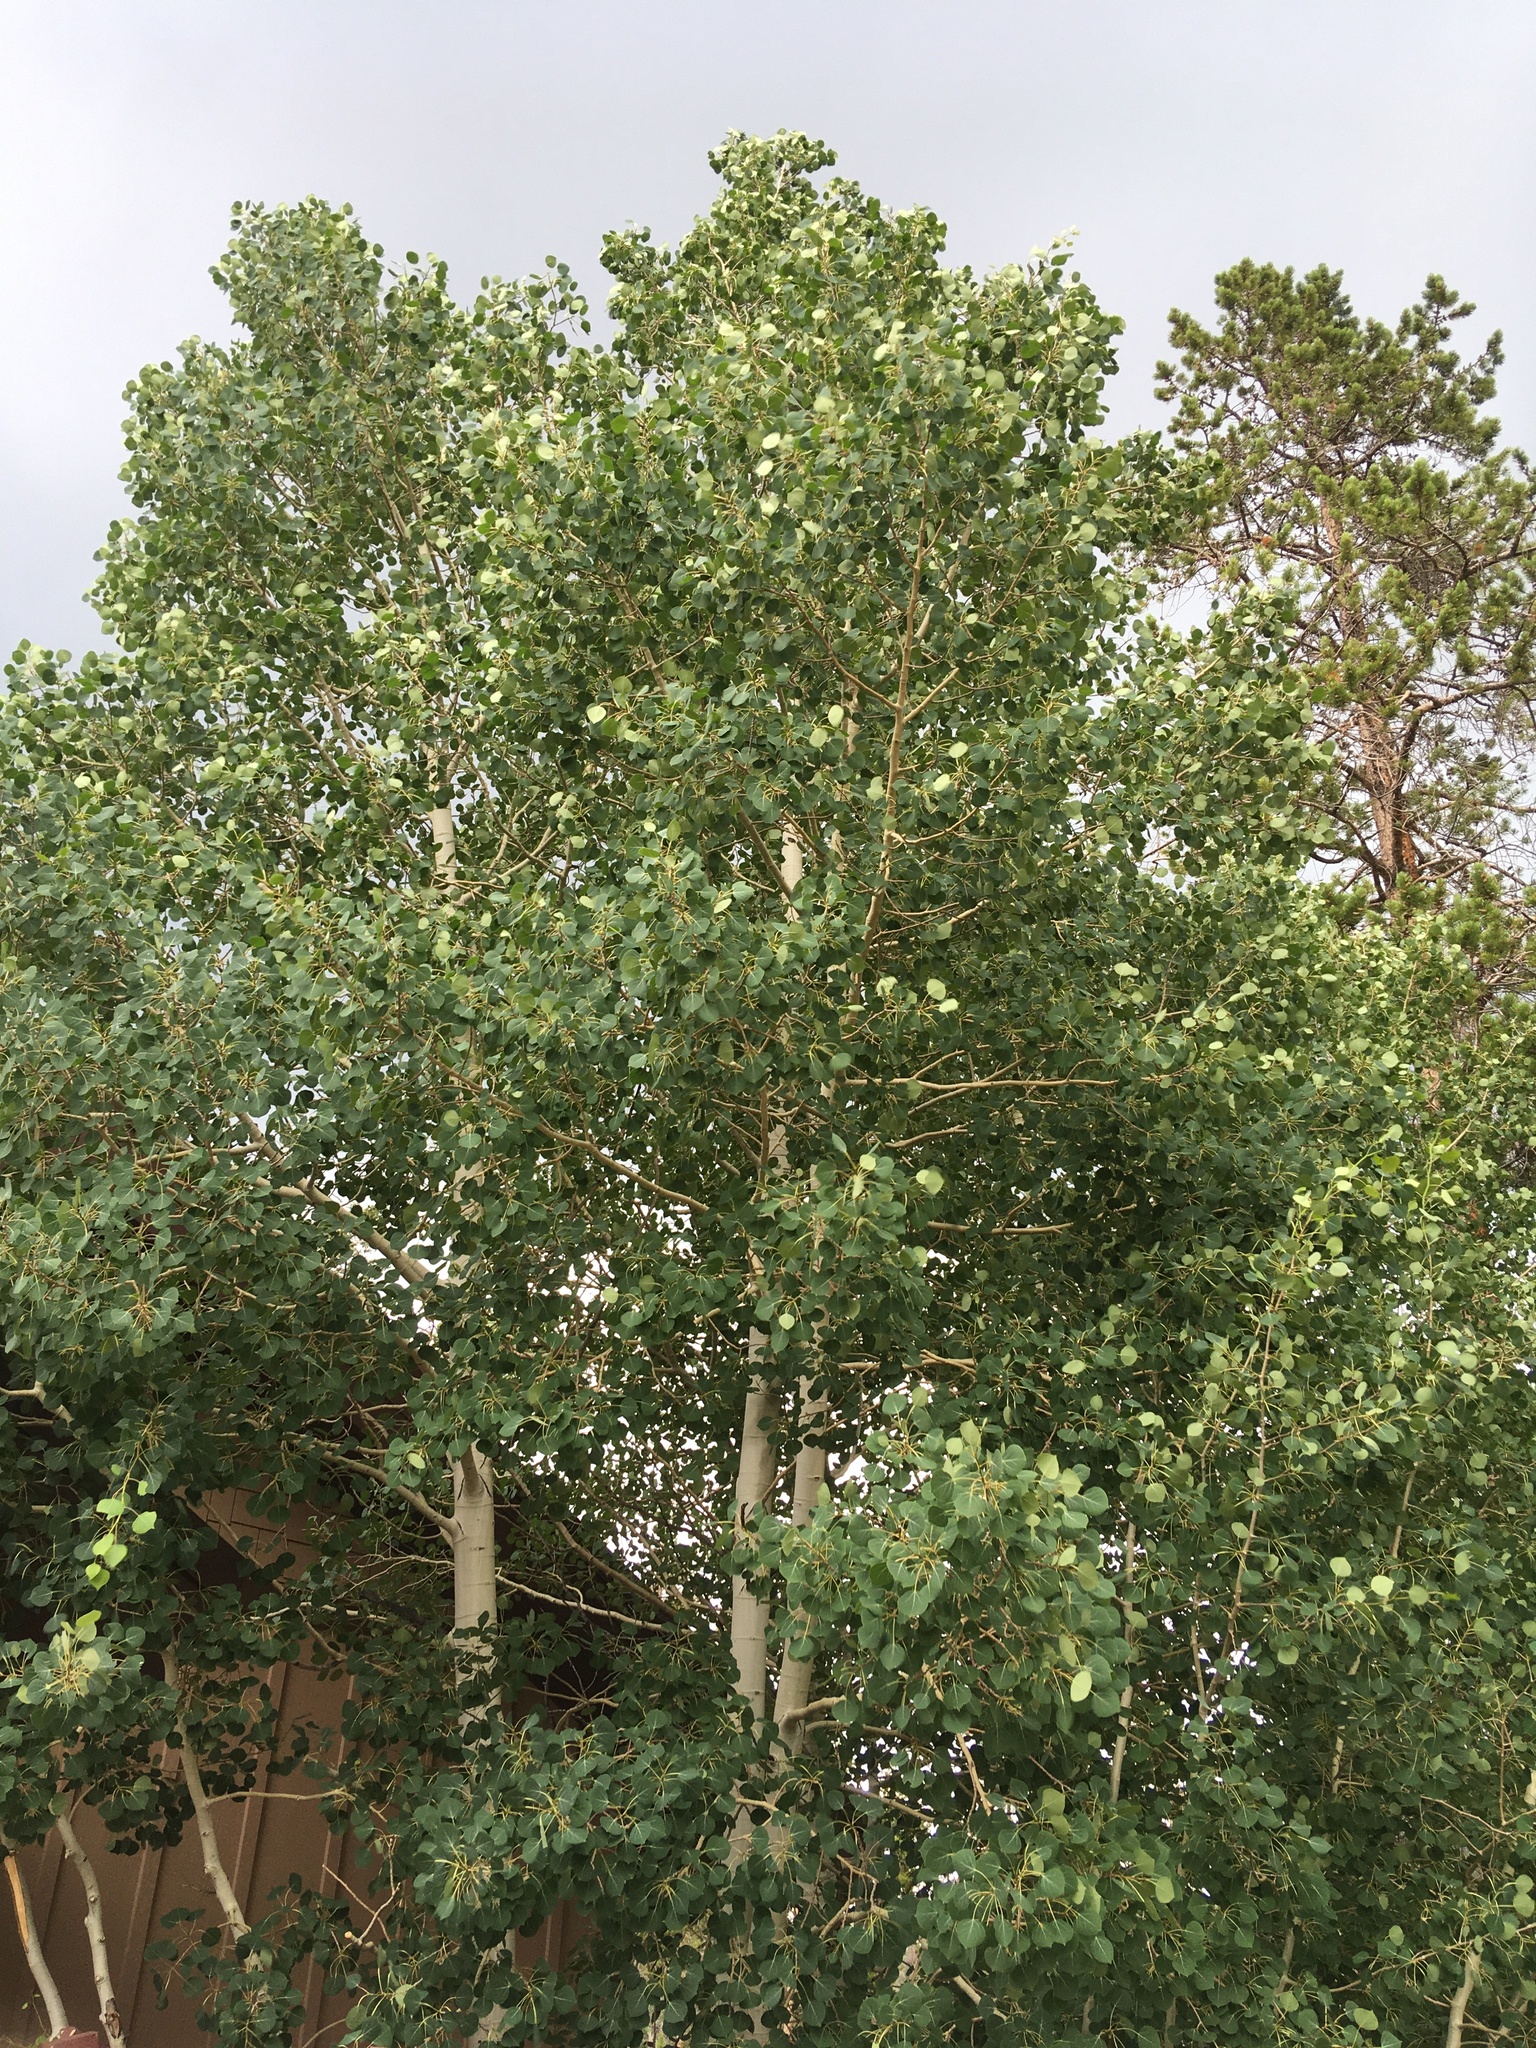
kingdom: Plantae
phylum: Tracheophyta
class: Magnoliopsida
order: Malpighiales
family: Salicaceae
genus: Populus
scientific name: Populus tremuloides
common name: Quaking aspen
